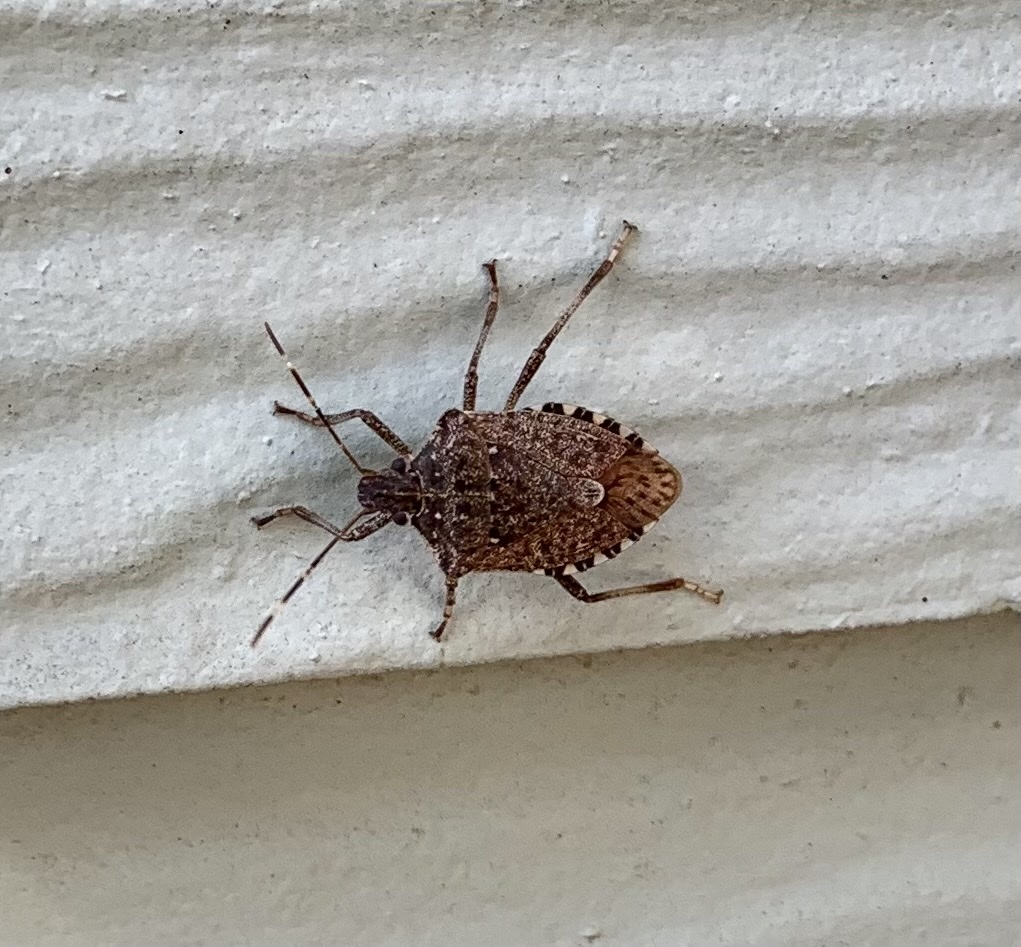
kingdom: Animalia
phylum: Arthropoda
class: Insecta
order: Hemiptera
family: Pentatomidae
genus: Halyomorpha
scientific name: Halyomorpha halys
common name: Brown marmorated stink bug
